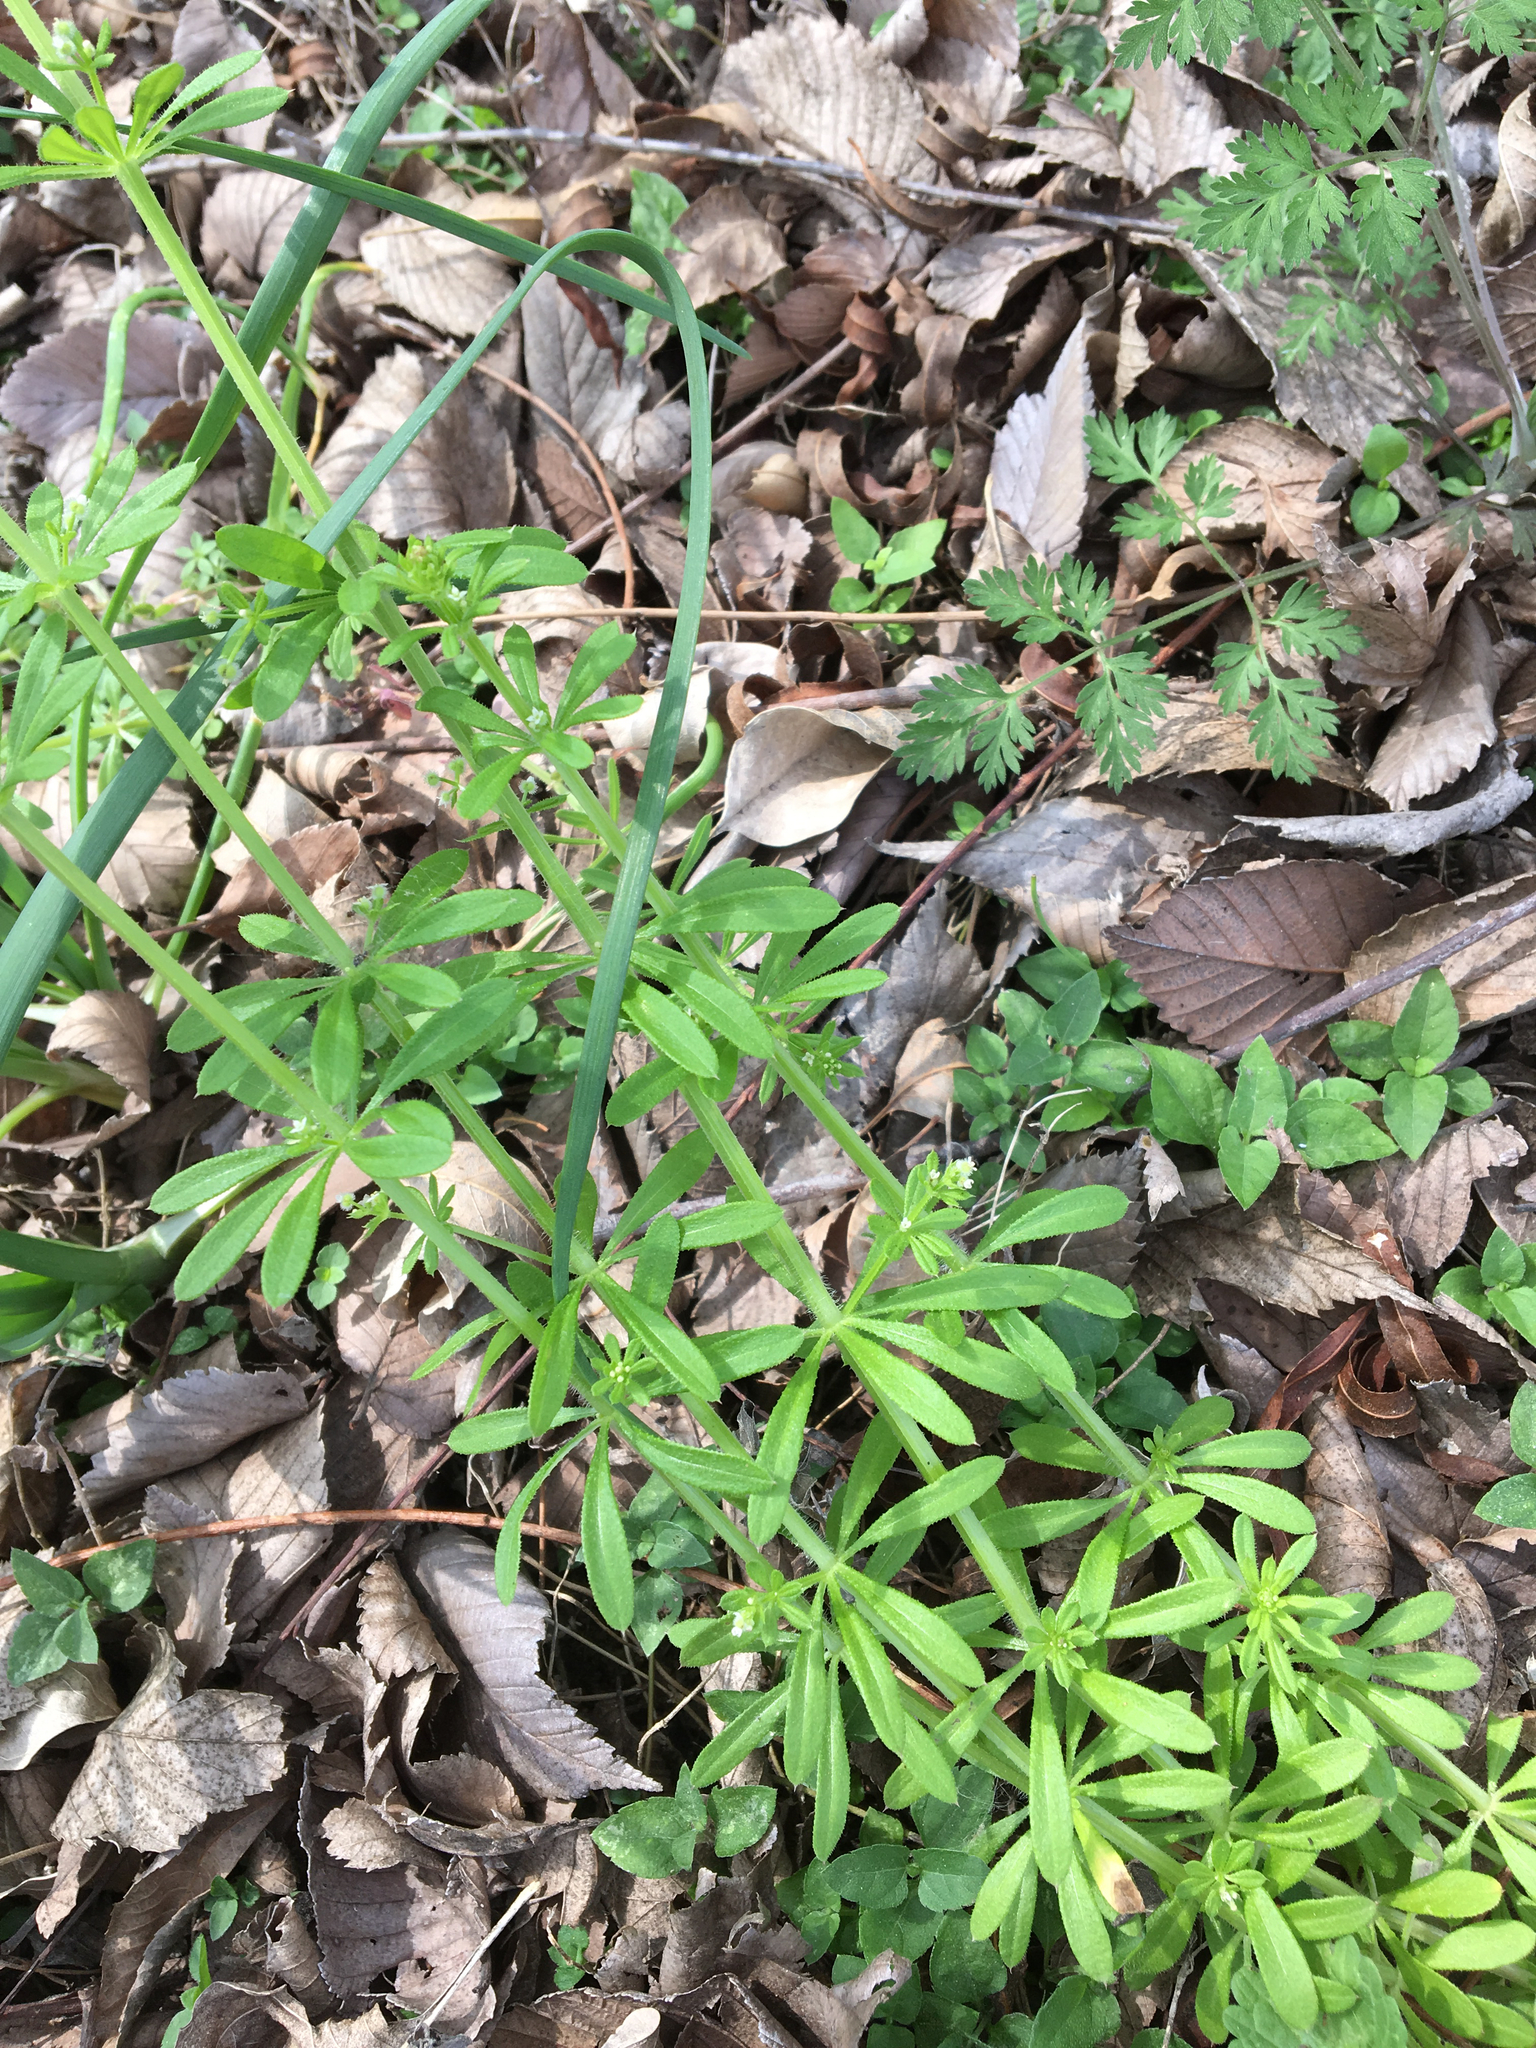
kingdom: Plantae
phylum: Tracheophyta
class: Magnoliopsida
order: Gentianales
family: Rubiaceae
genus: Galium
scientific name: Galium aparine
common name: Cleavers
